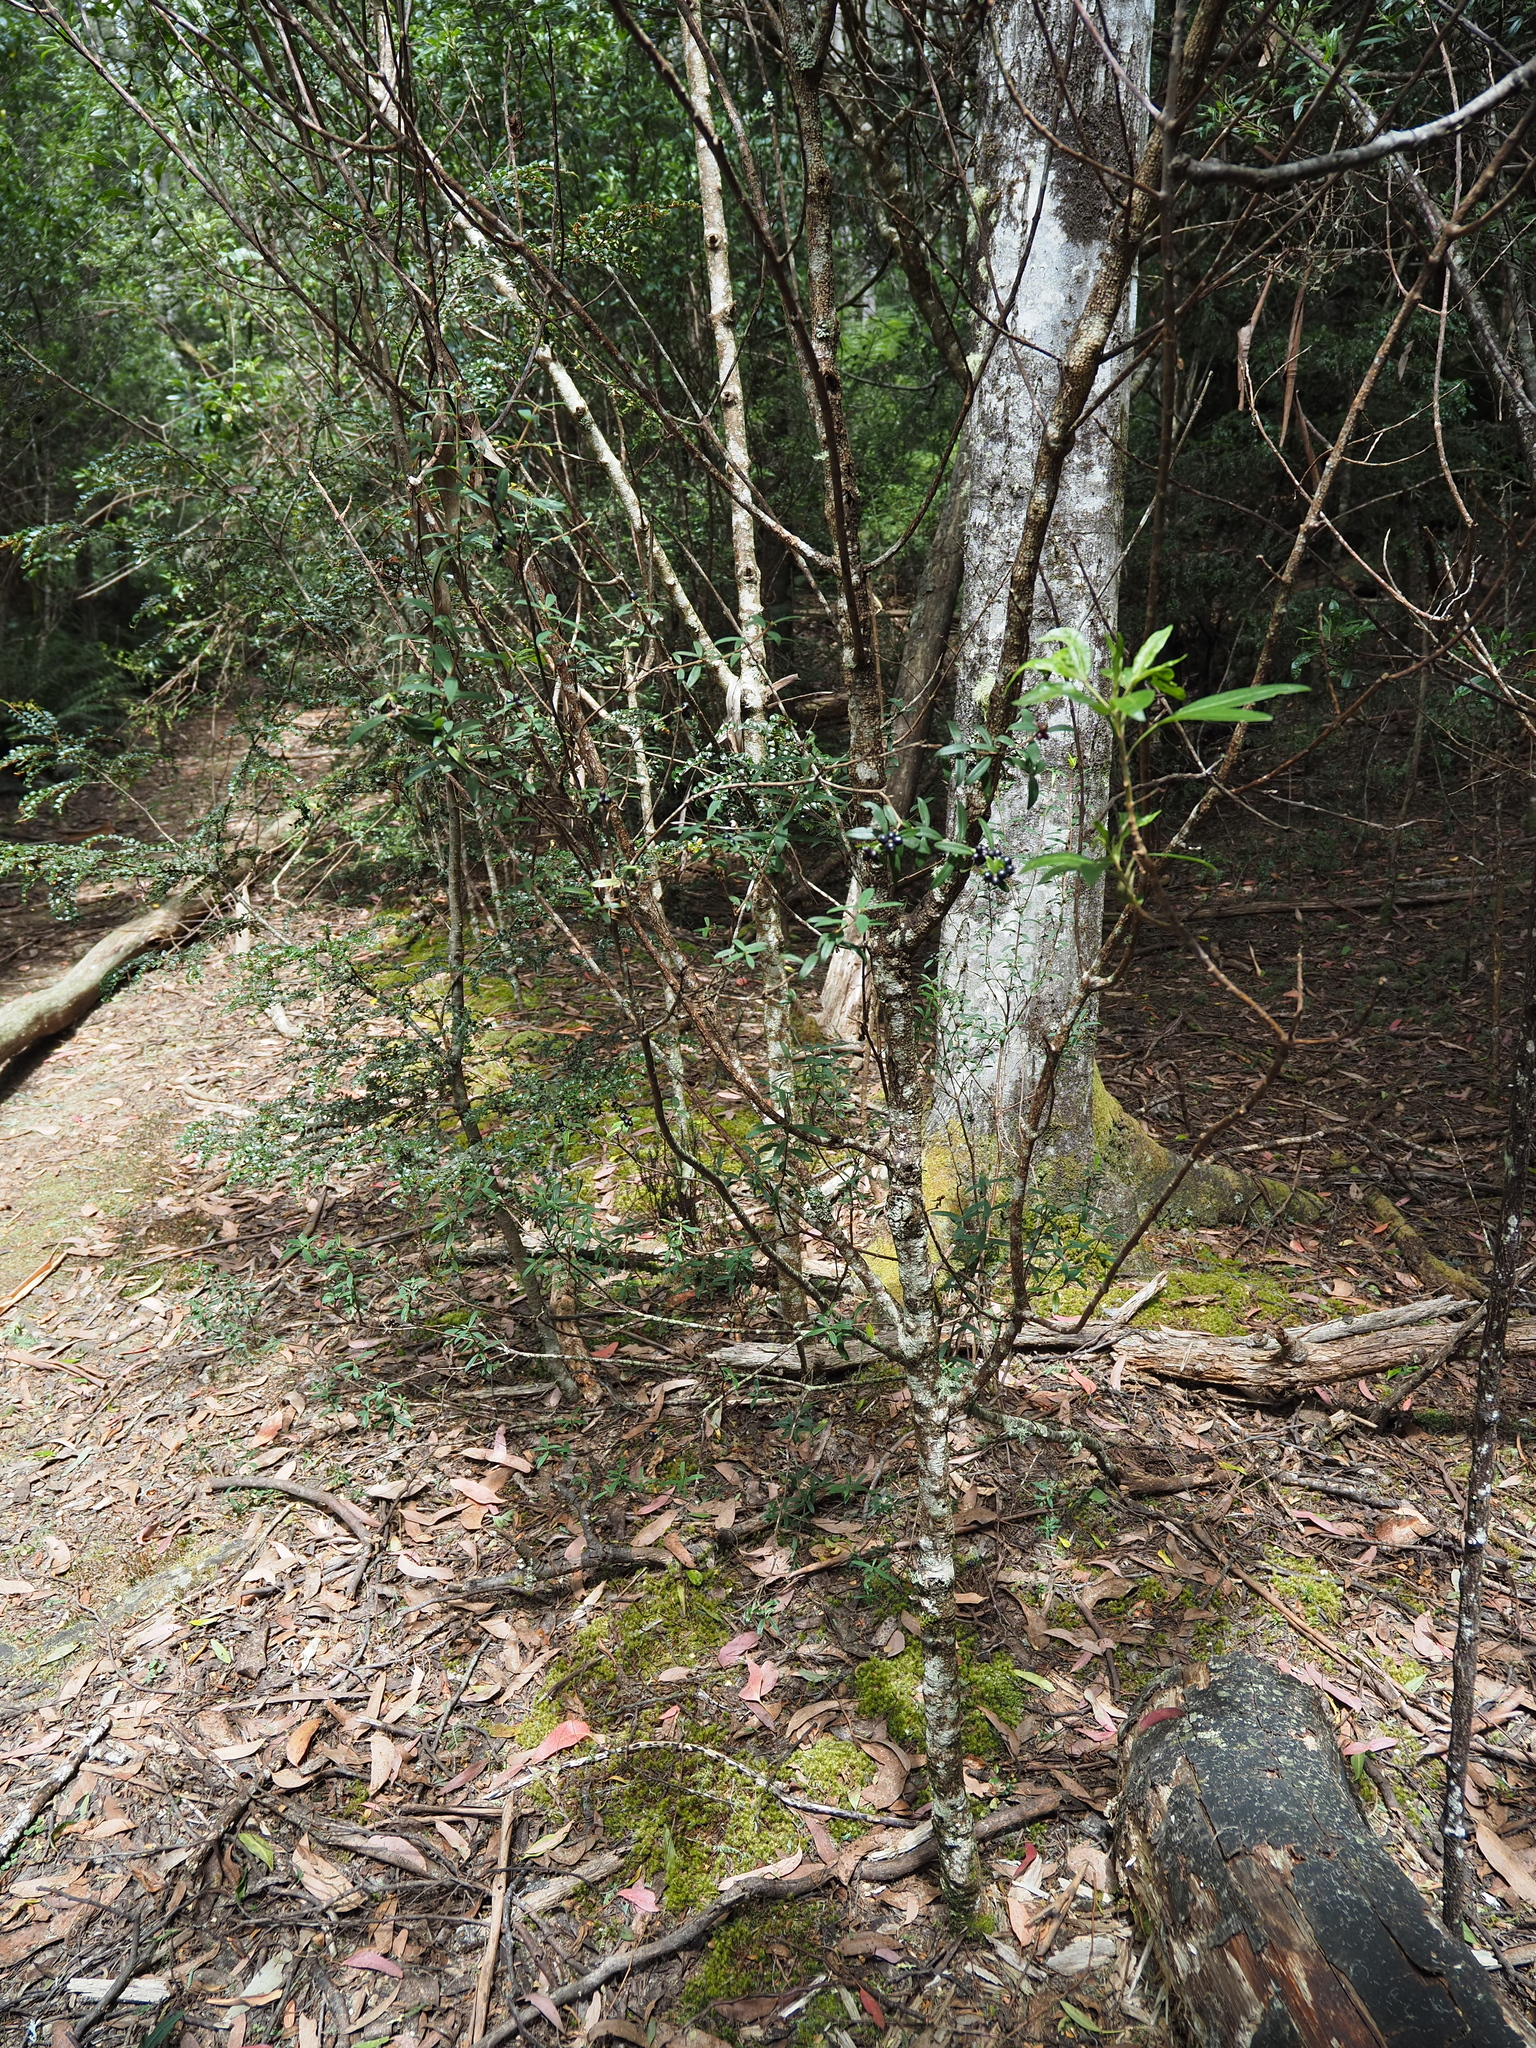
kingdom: Plantae
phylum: Tracheophyta
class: Magnoliopsida
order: Malvales
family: Thymelaeaceae
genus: Pimelea
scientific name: Pimelea drupacea
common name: Cherry riceflower
